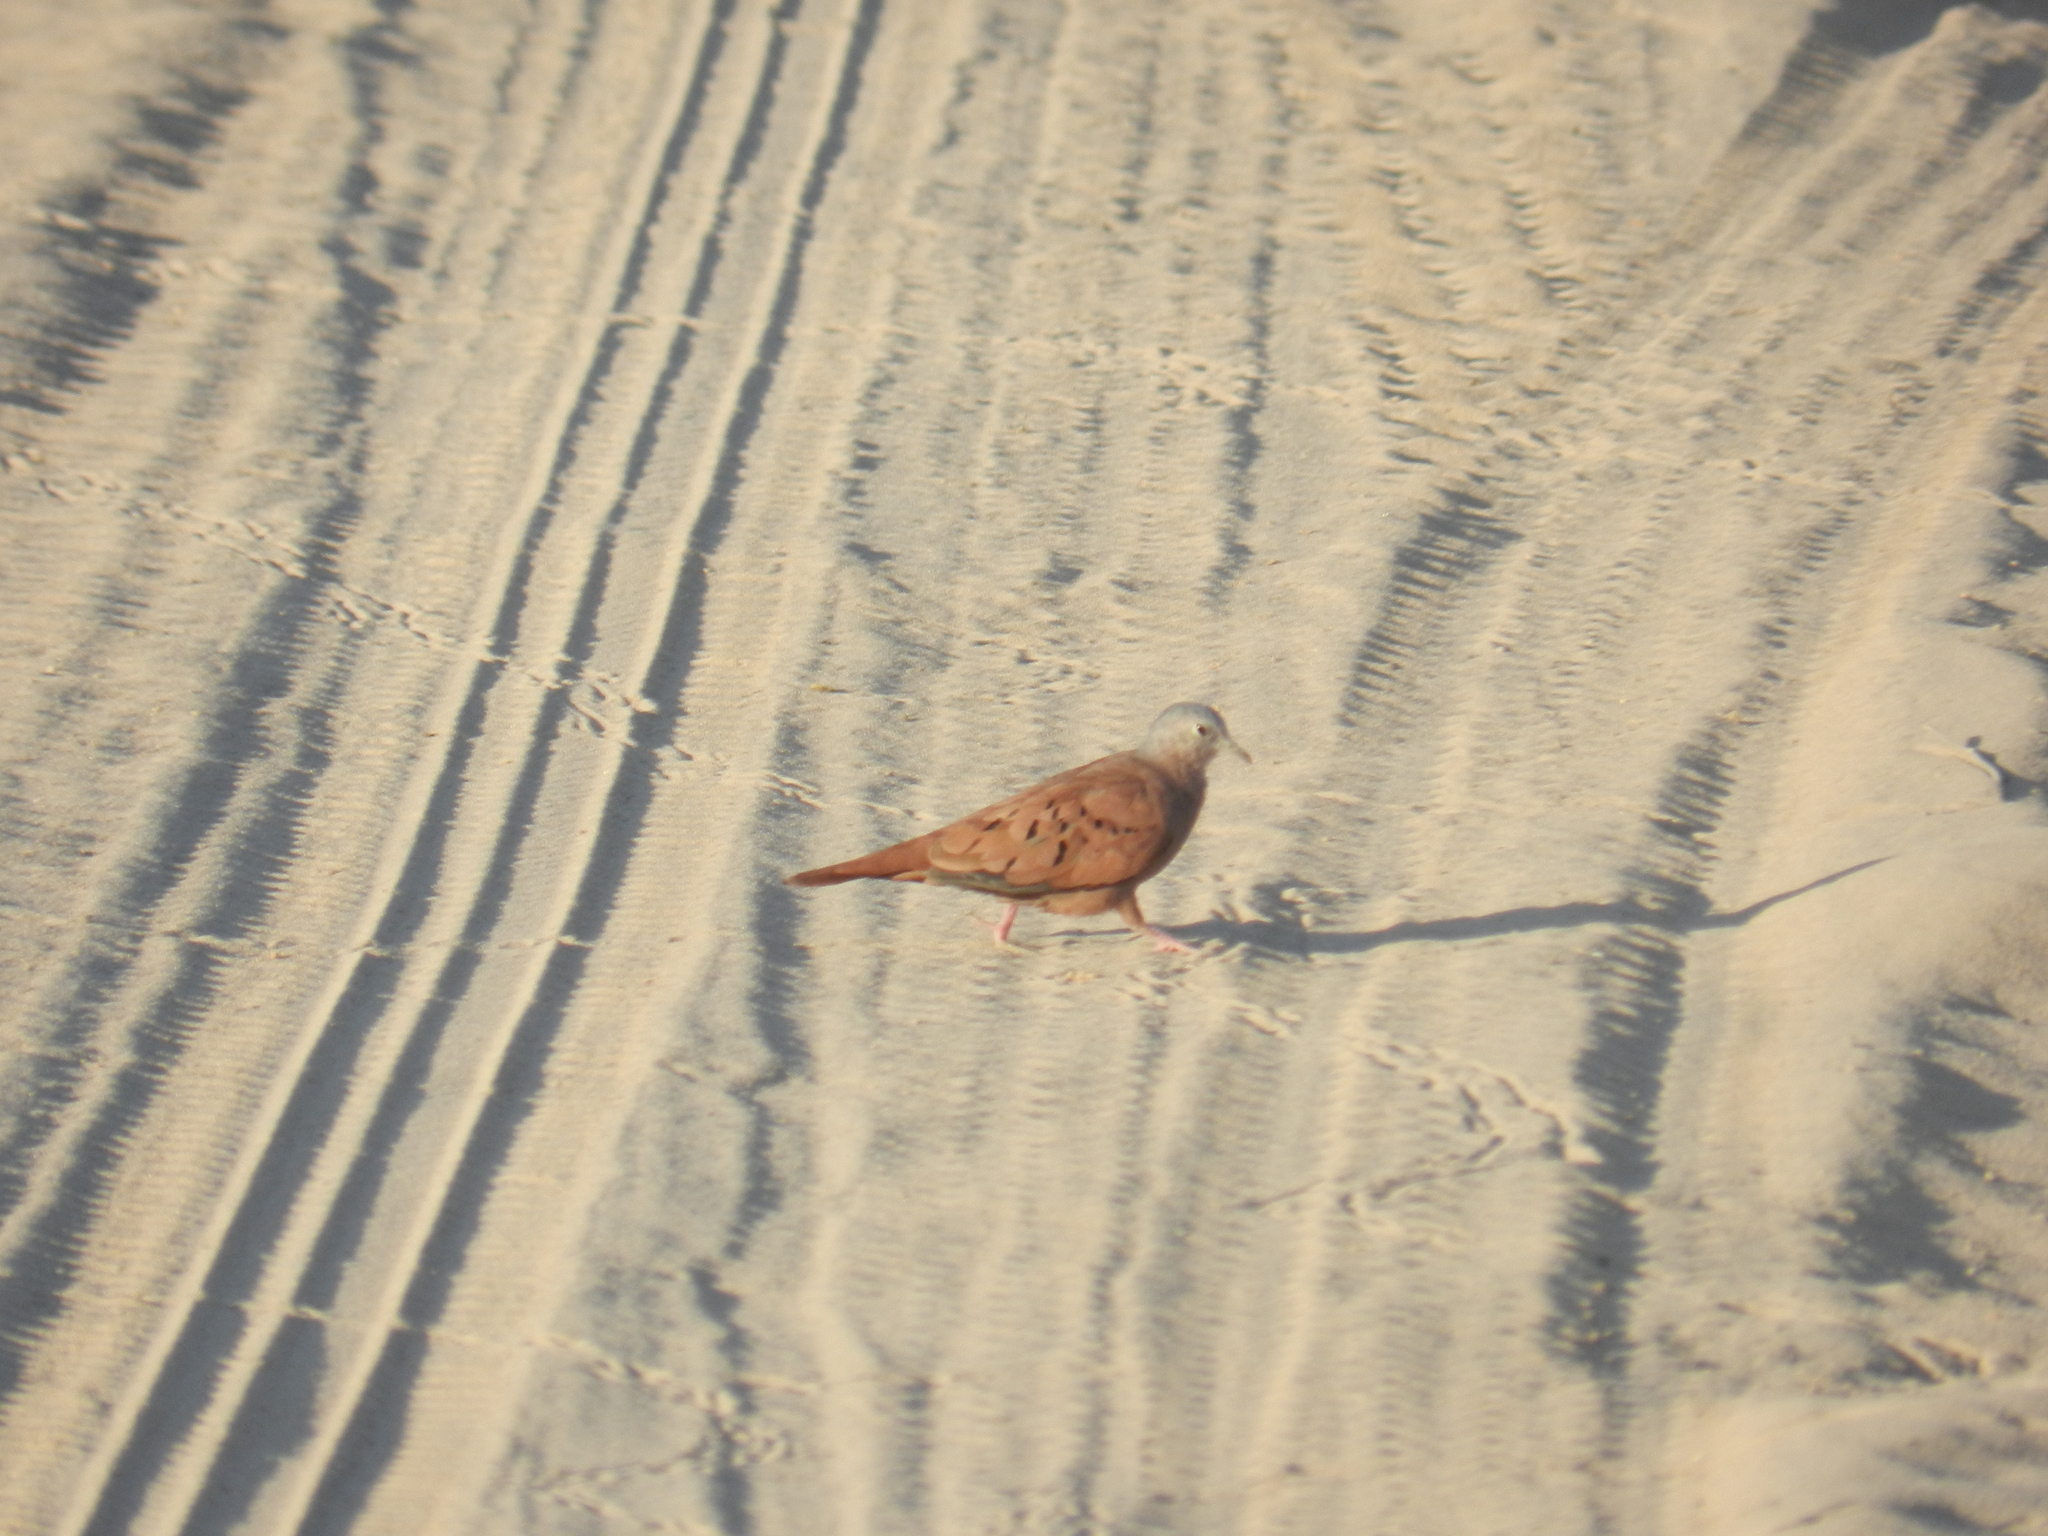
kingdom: Animalia
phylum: Chordata
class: Aves
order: Columbiformes
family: Columbidae
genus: Columbina
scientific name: Columbina talpacoti
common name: Ruddy ground dove
